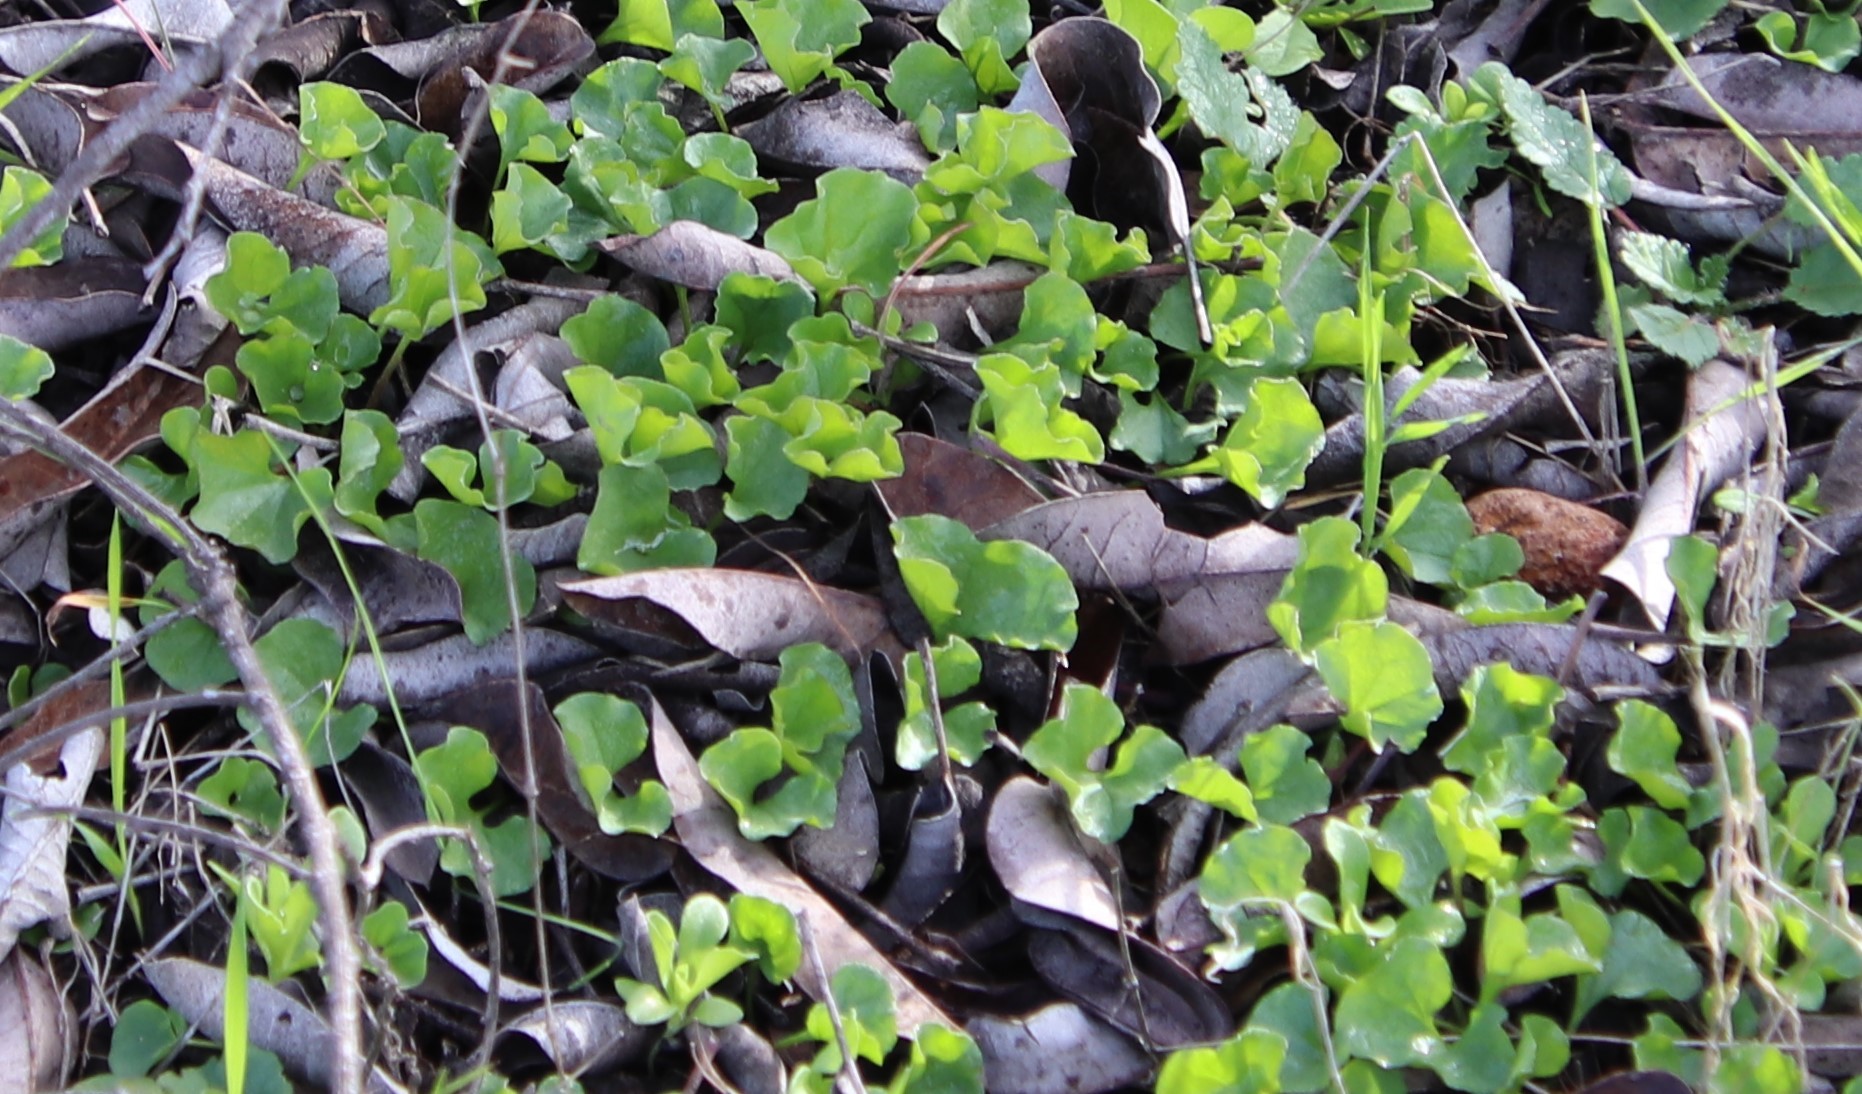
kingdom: Plantae
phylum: Tracheophyta
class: Magnoliopsida
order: Solanales
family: Convolvulaceae
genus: Dichondra
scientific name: Dichondra occidentalis
